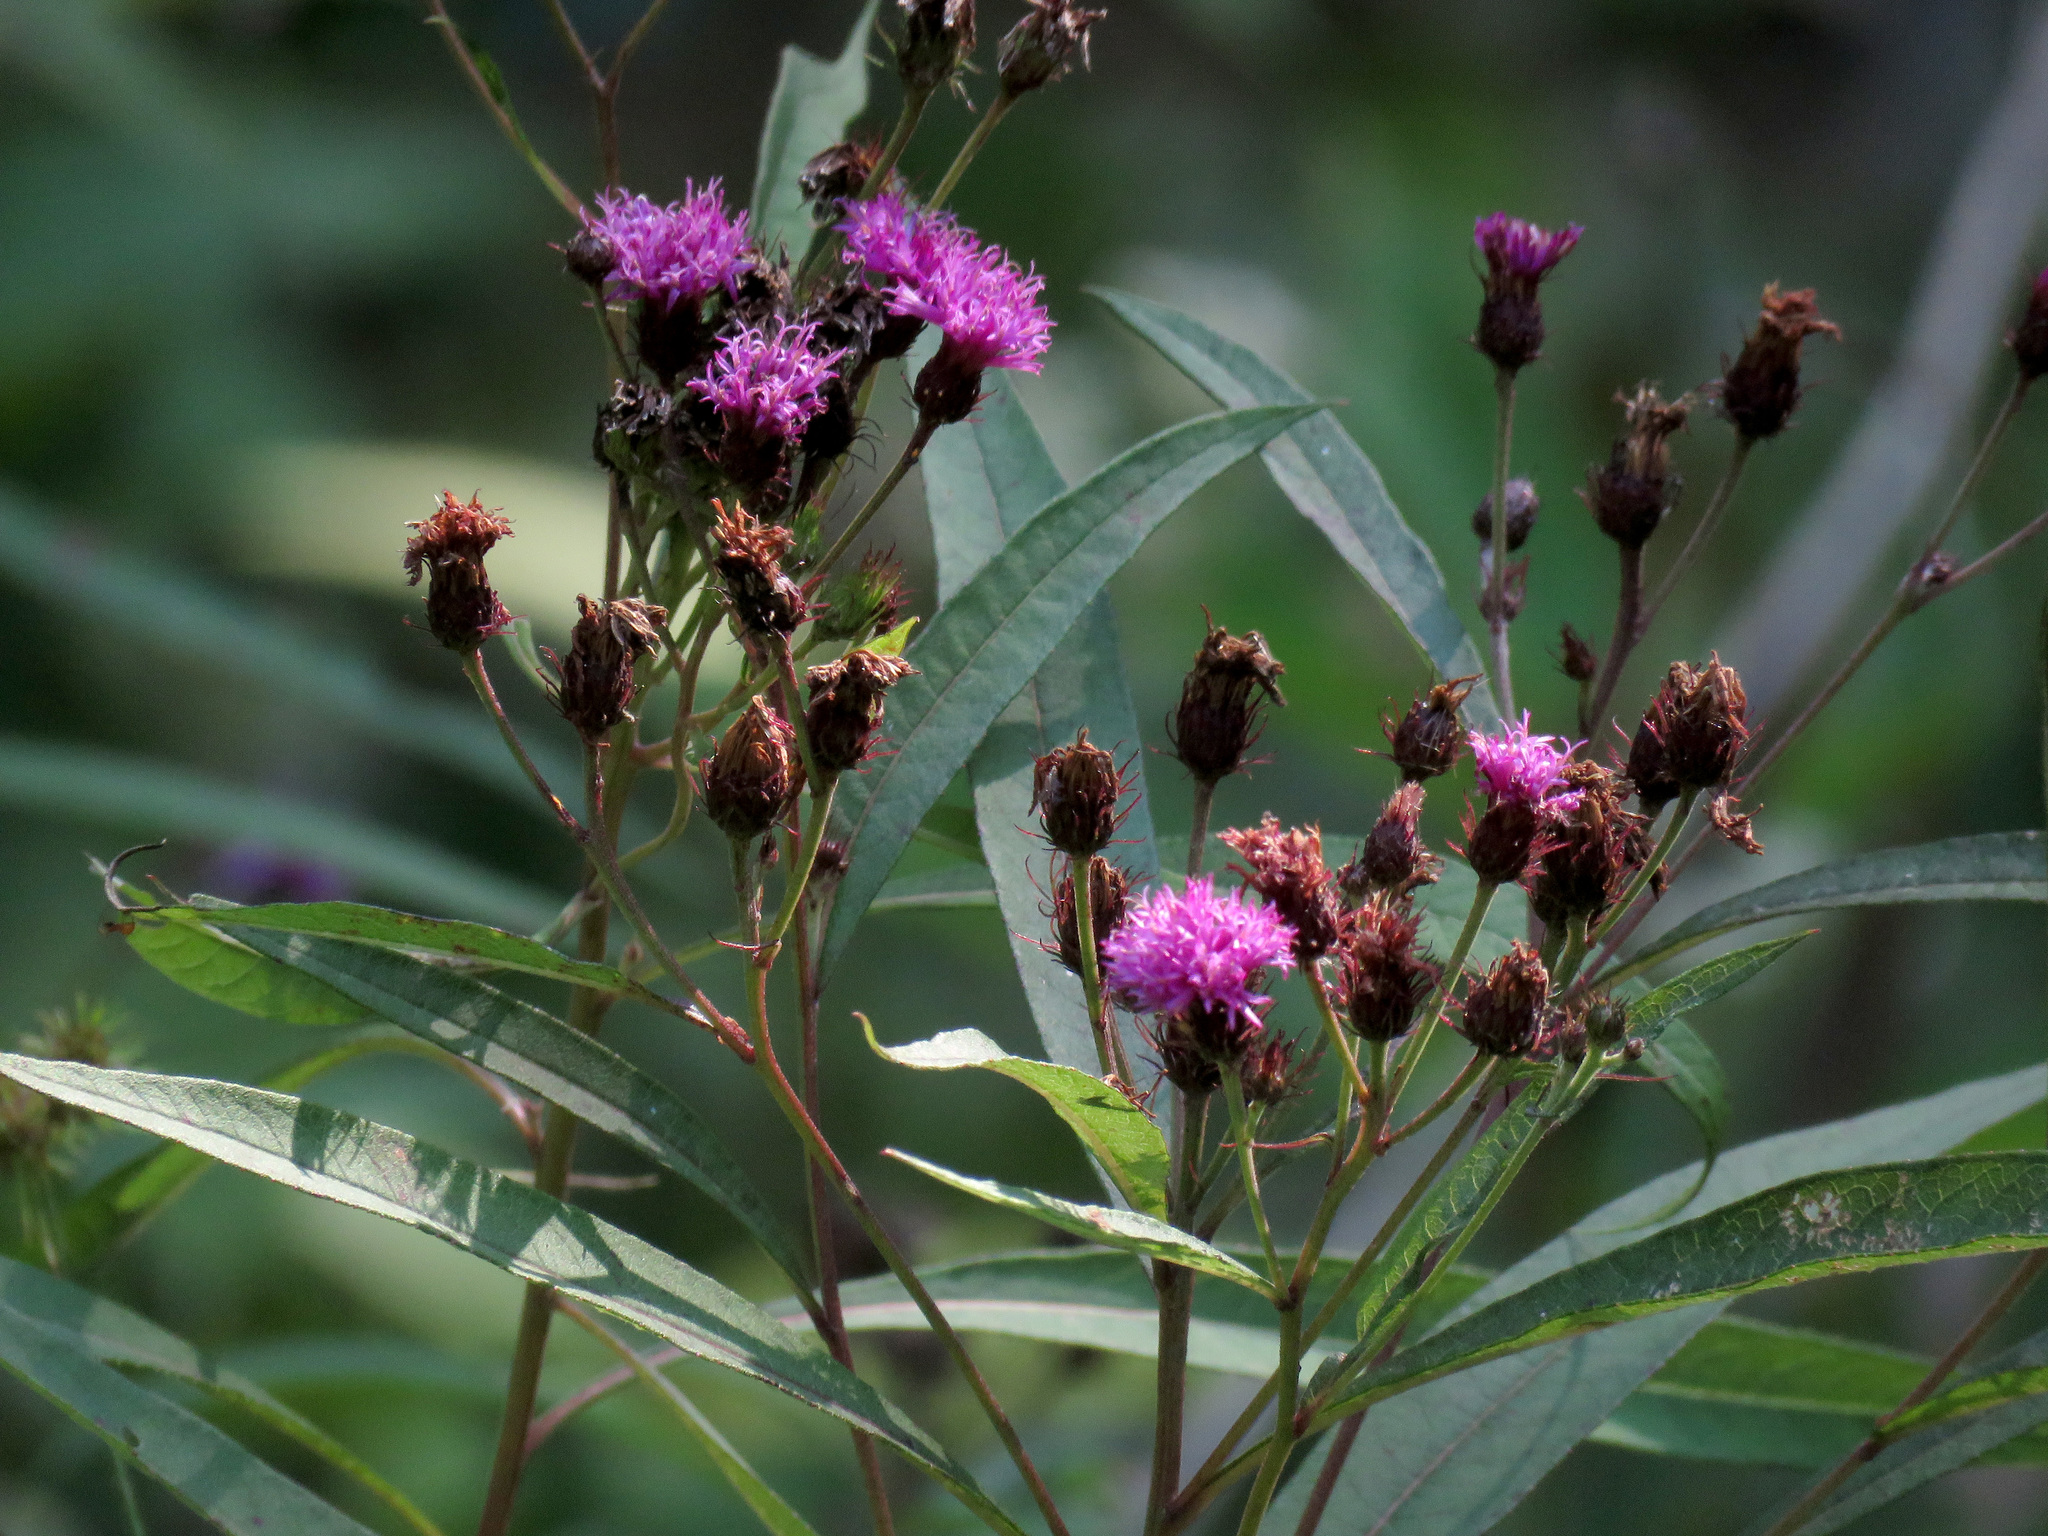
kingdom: Plantae
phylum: Tracheophyta
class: Magnoliopsida
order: Asterales
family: Asteraceae
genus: Vernonia
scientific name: Vernonia noveboracensis
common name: New york ironweed
